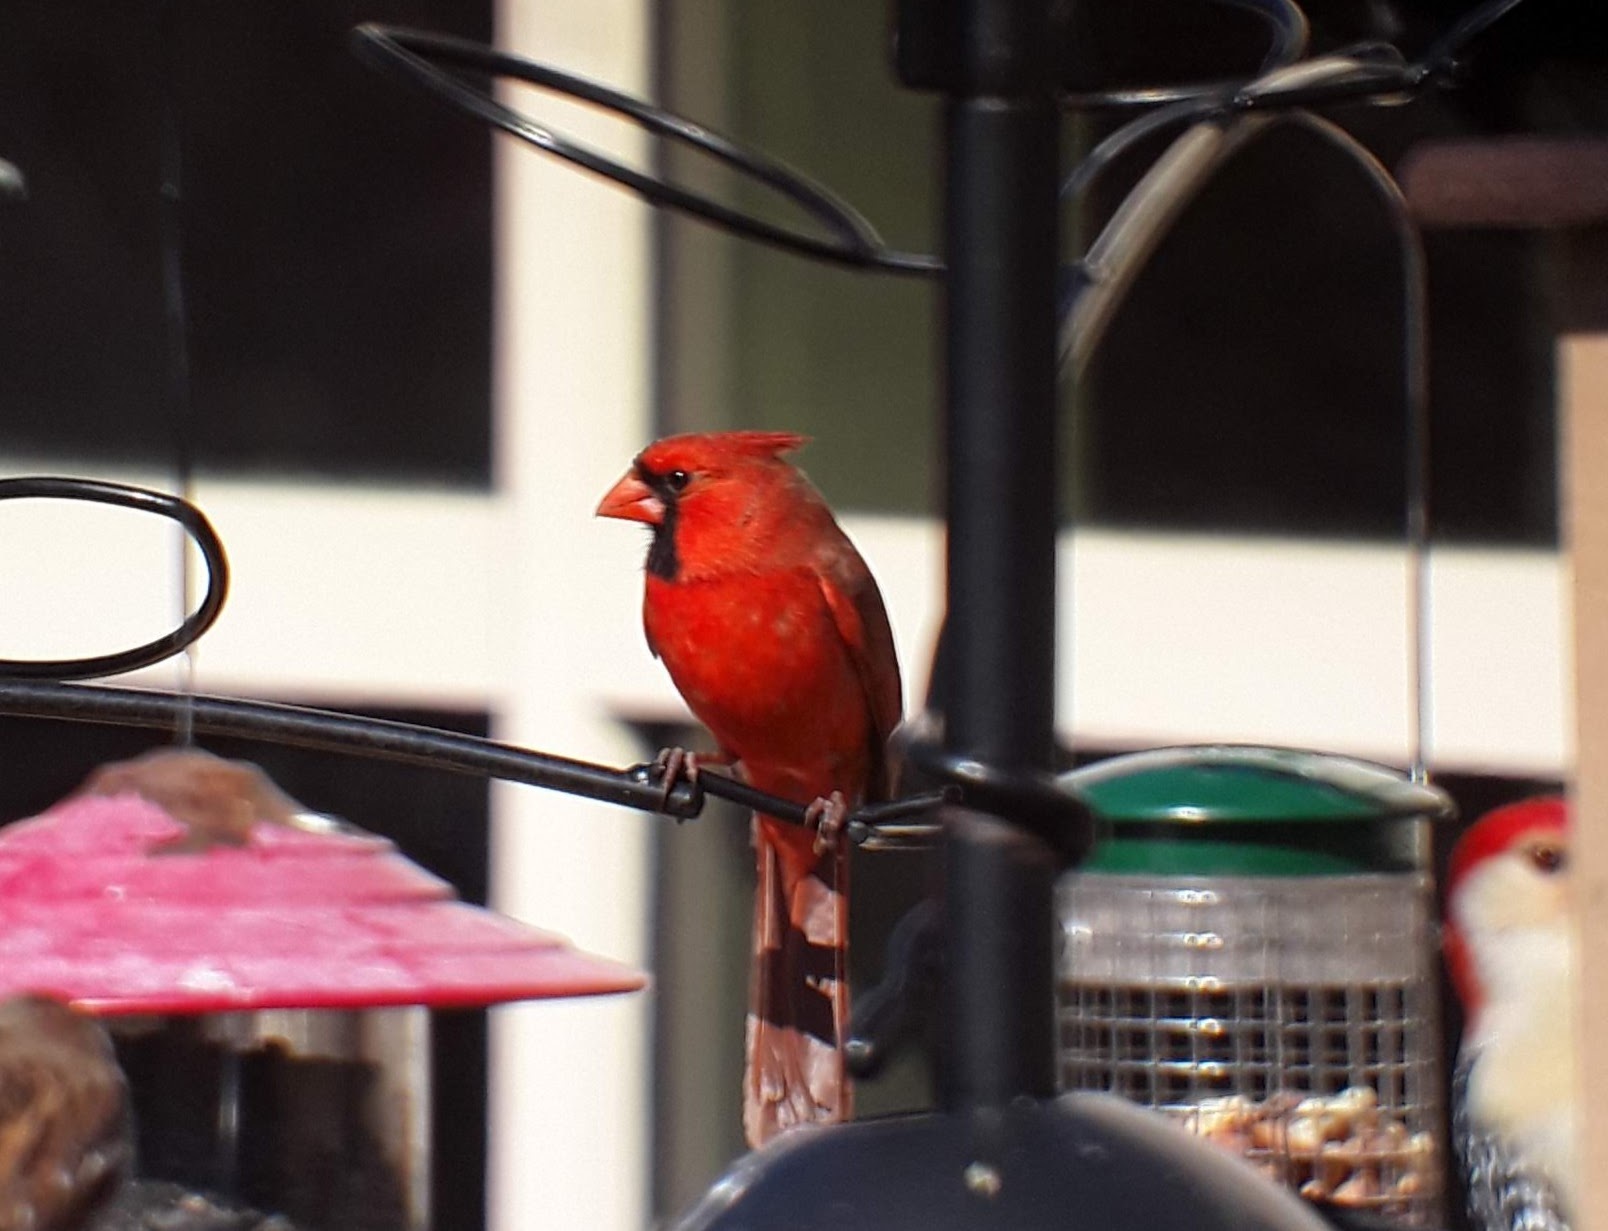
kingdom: Animalia
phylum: Chordata
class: Aves
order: Passeriformes
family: Cardinalidae
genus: Cardinalis
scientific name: Cardinalis cardinalis
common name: Northern cardinal
